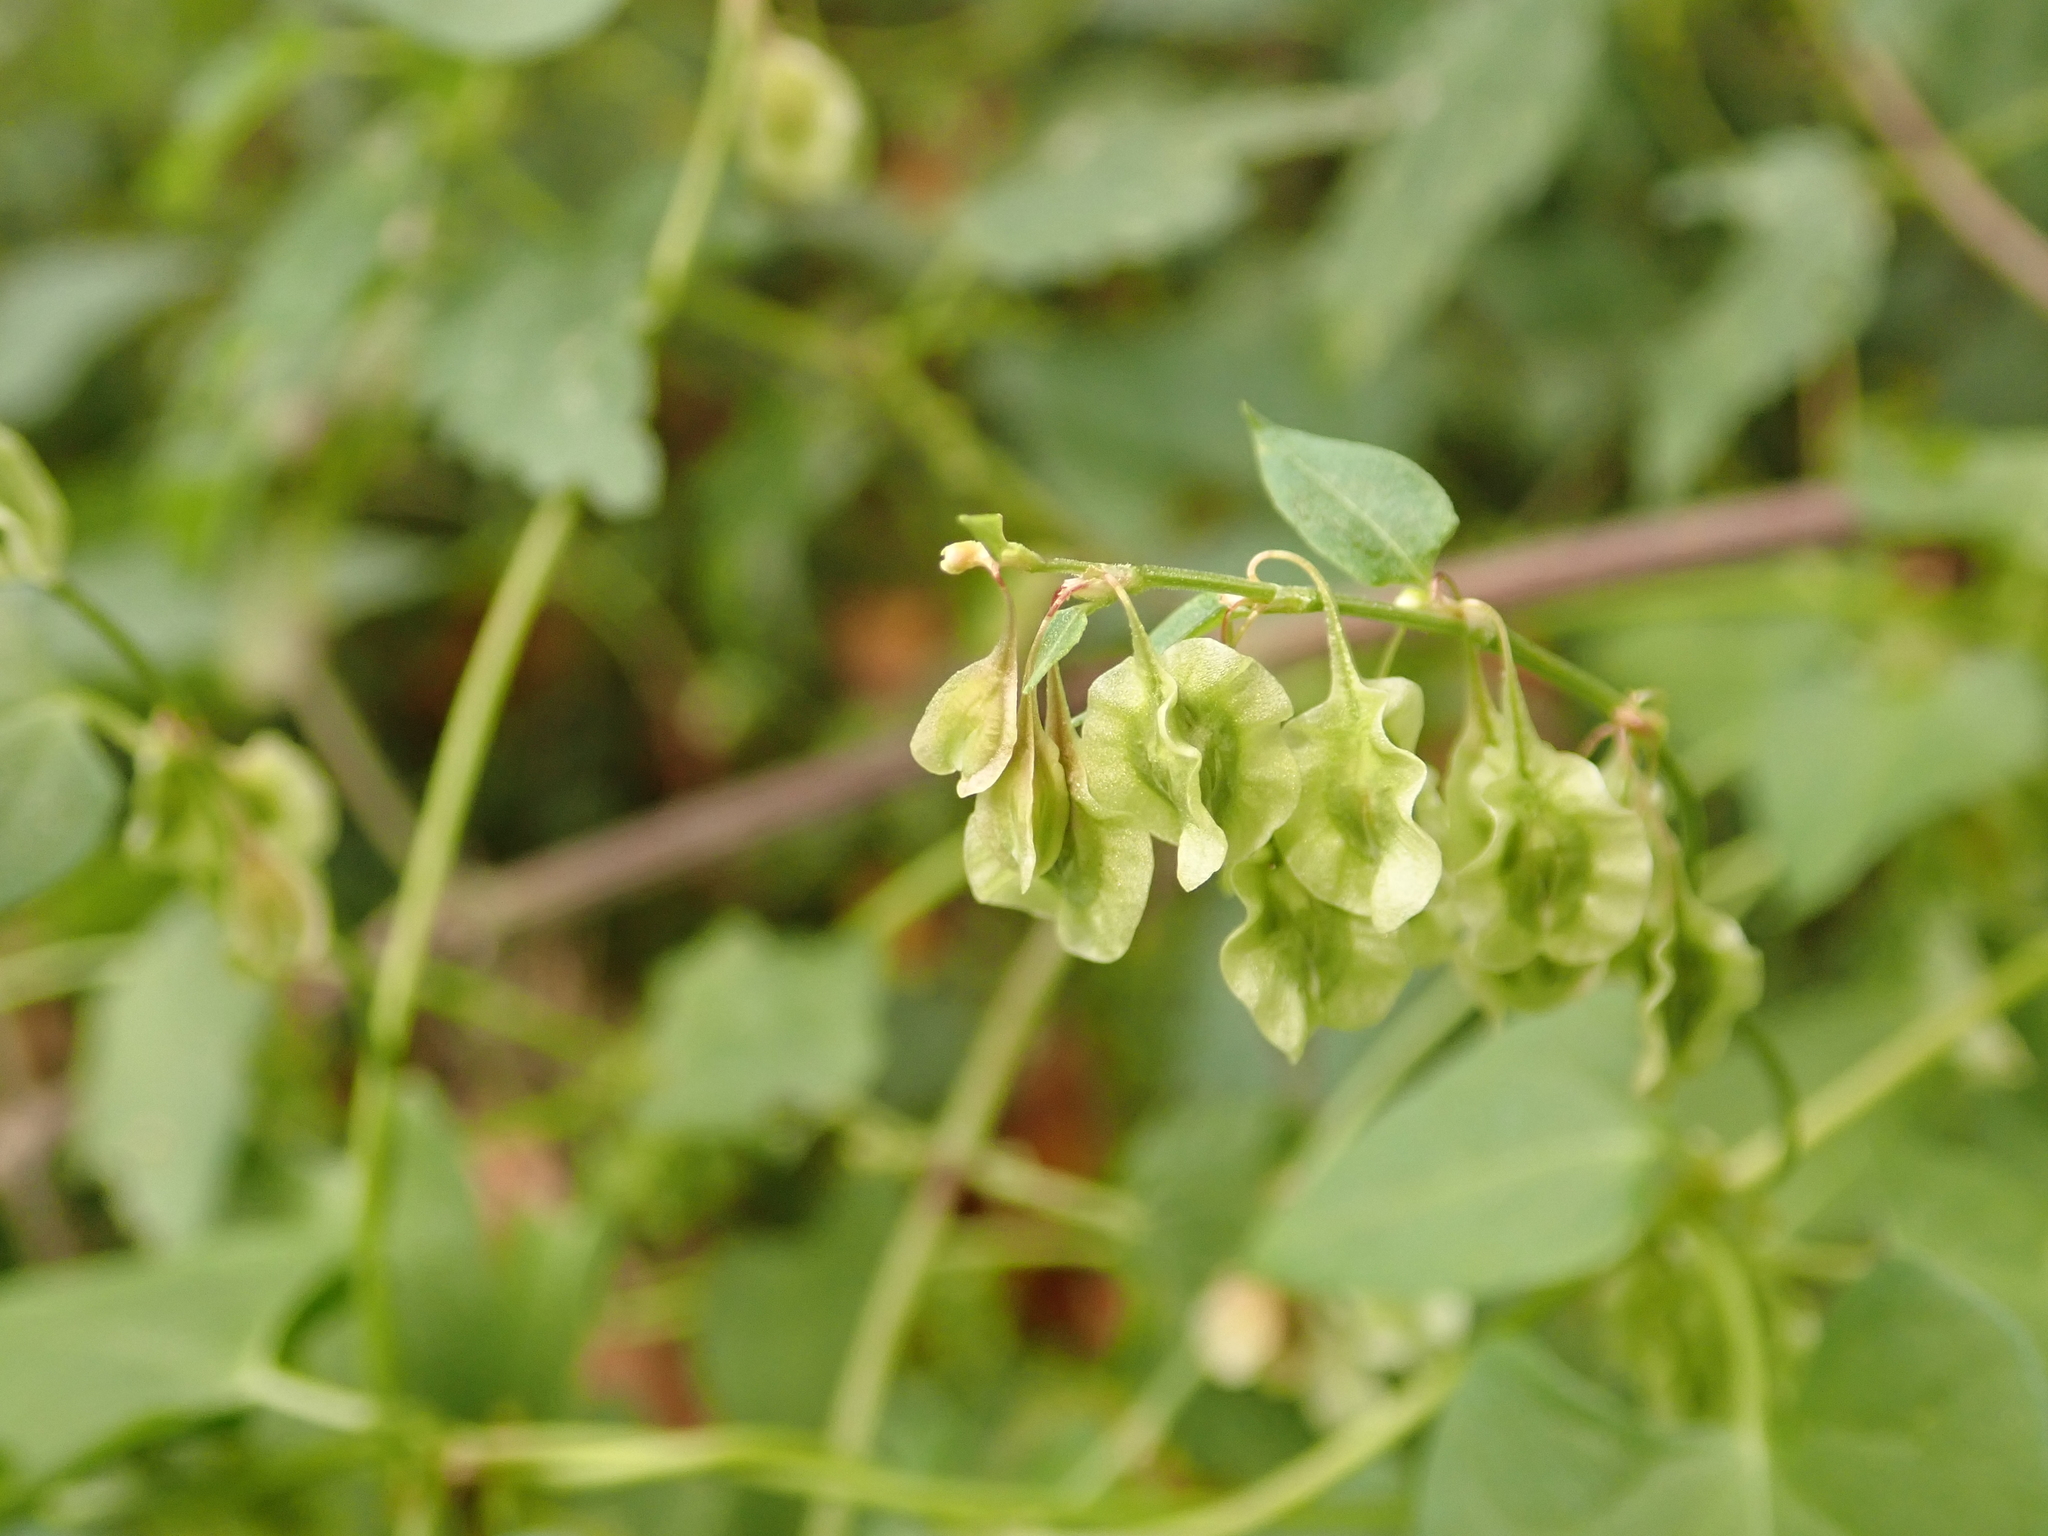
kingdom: Plantae
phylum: Tracheophyta
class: Magnoliopsida
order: Caryophyllales
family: Polygonaceae
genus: Fallopia
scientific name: Fallopia dumetorum
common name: Copse-bindweed
